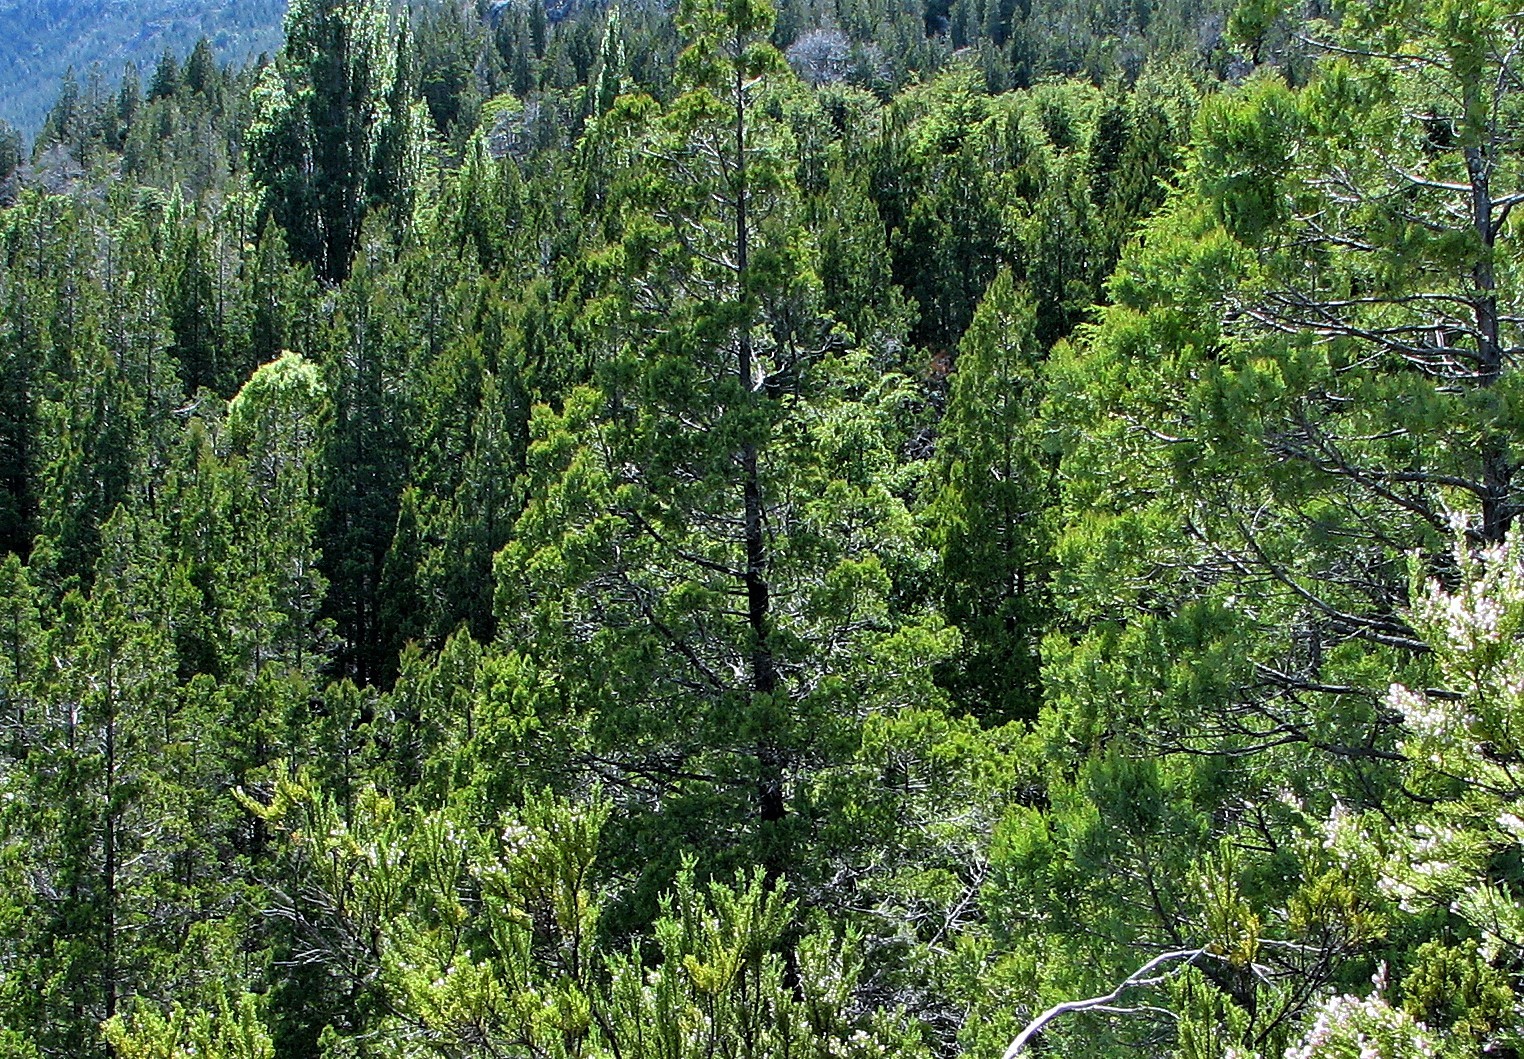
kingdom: Plantae
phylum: Tracheophyta
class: Pinopsida
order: Pinales
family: Cupressaceae
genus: Austrocedrus
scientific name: Austrocedrus chilensis
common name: Chilean incense-cedar
